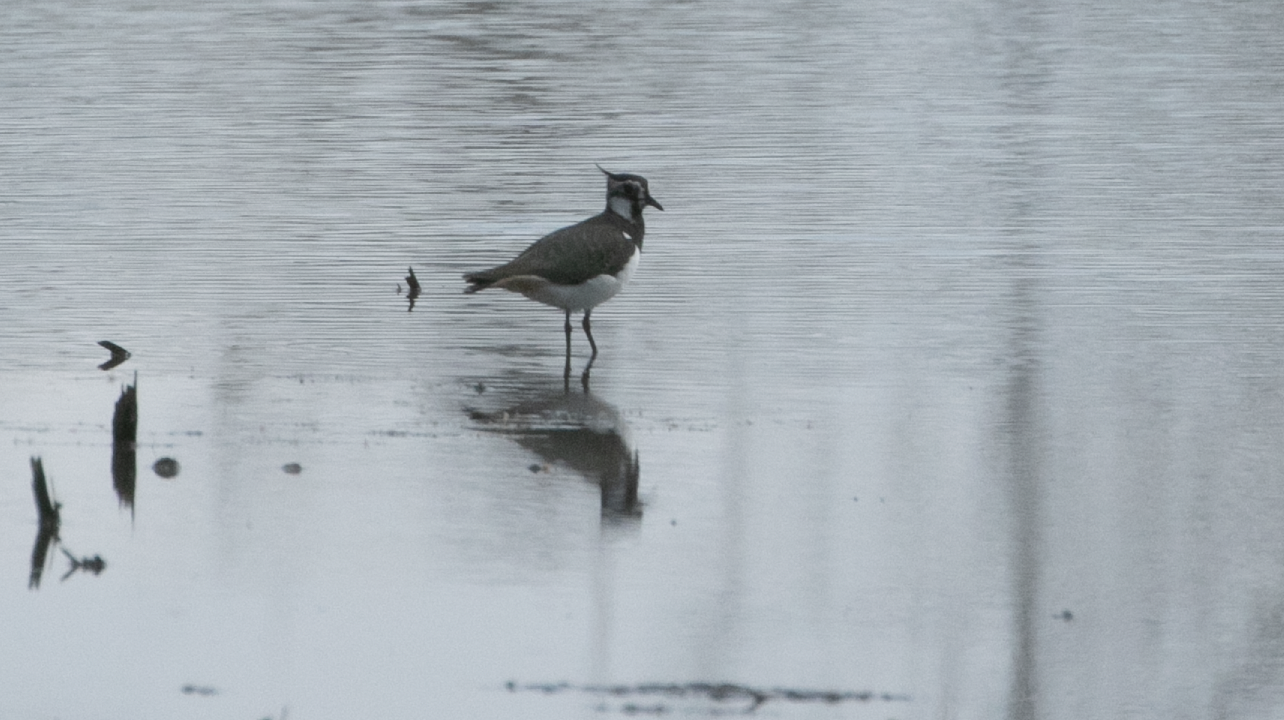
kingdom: Animalia
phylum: Chordata
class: Aves
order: Charadriiformes
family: Charadriidae
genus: Vanellus
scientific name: Vanellus vanellus
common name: Northern lapwing
